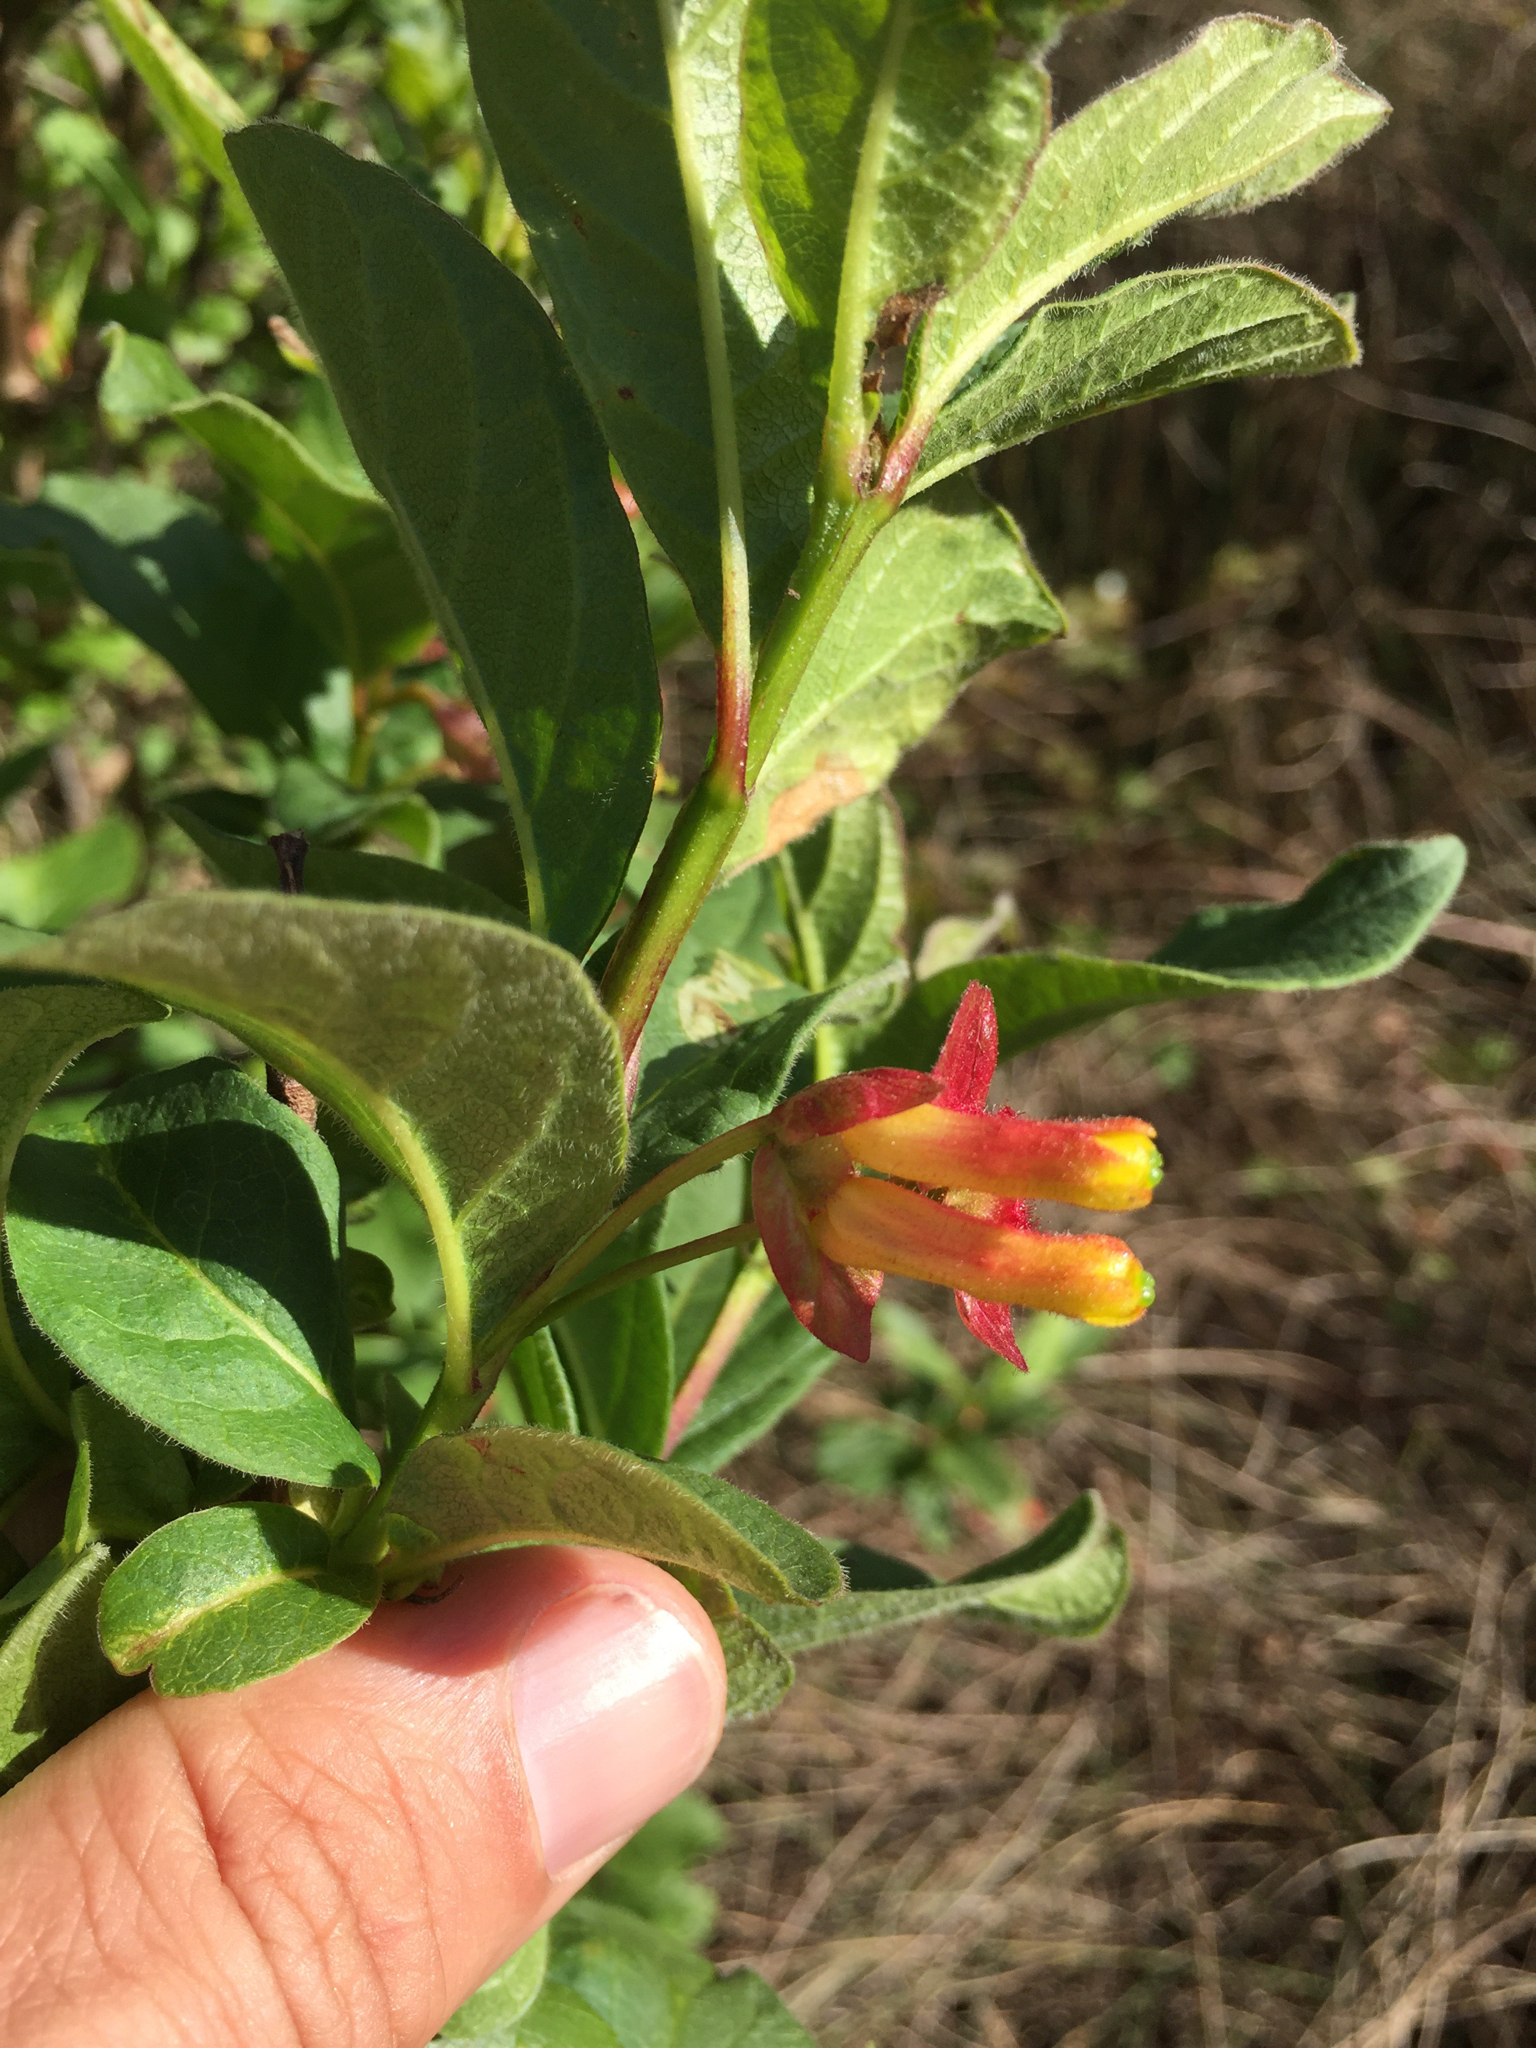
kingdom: Plantae
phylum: Tracheophyta
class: Magnoliopsida
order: Dipsacales
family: Caprifoliaceae
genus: Lonicera
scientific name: Lonicera involucrata
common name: Californian honeysuckle
